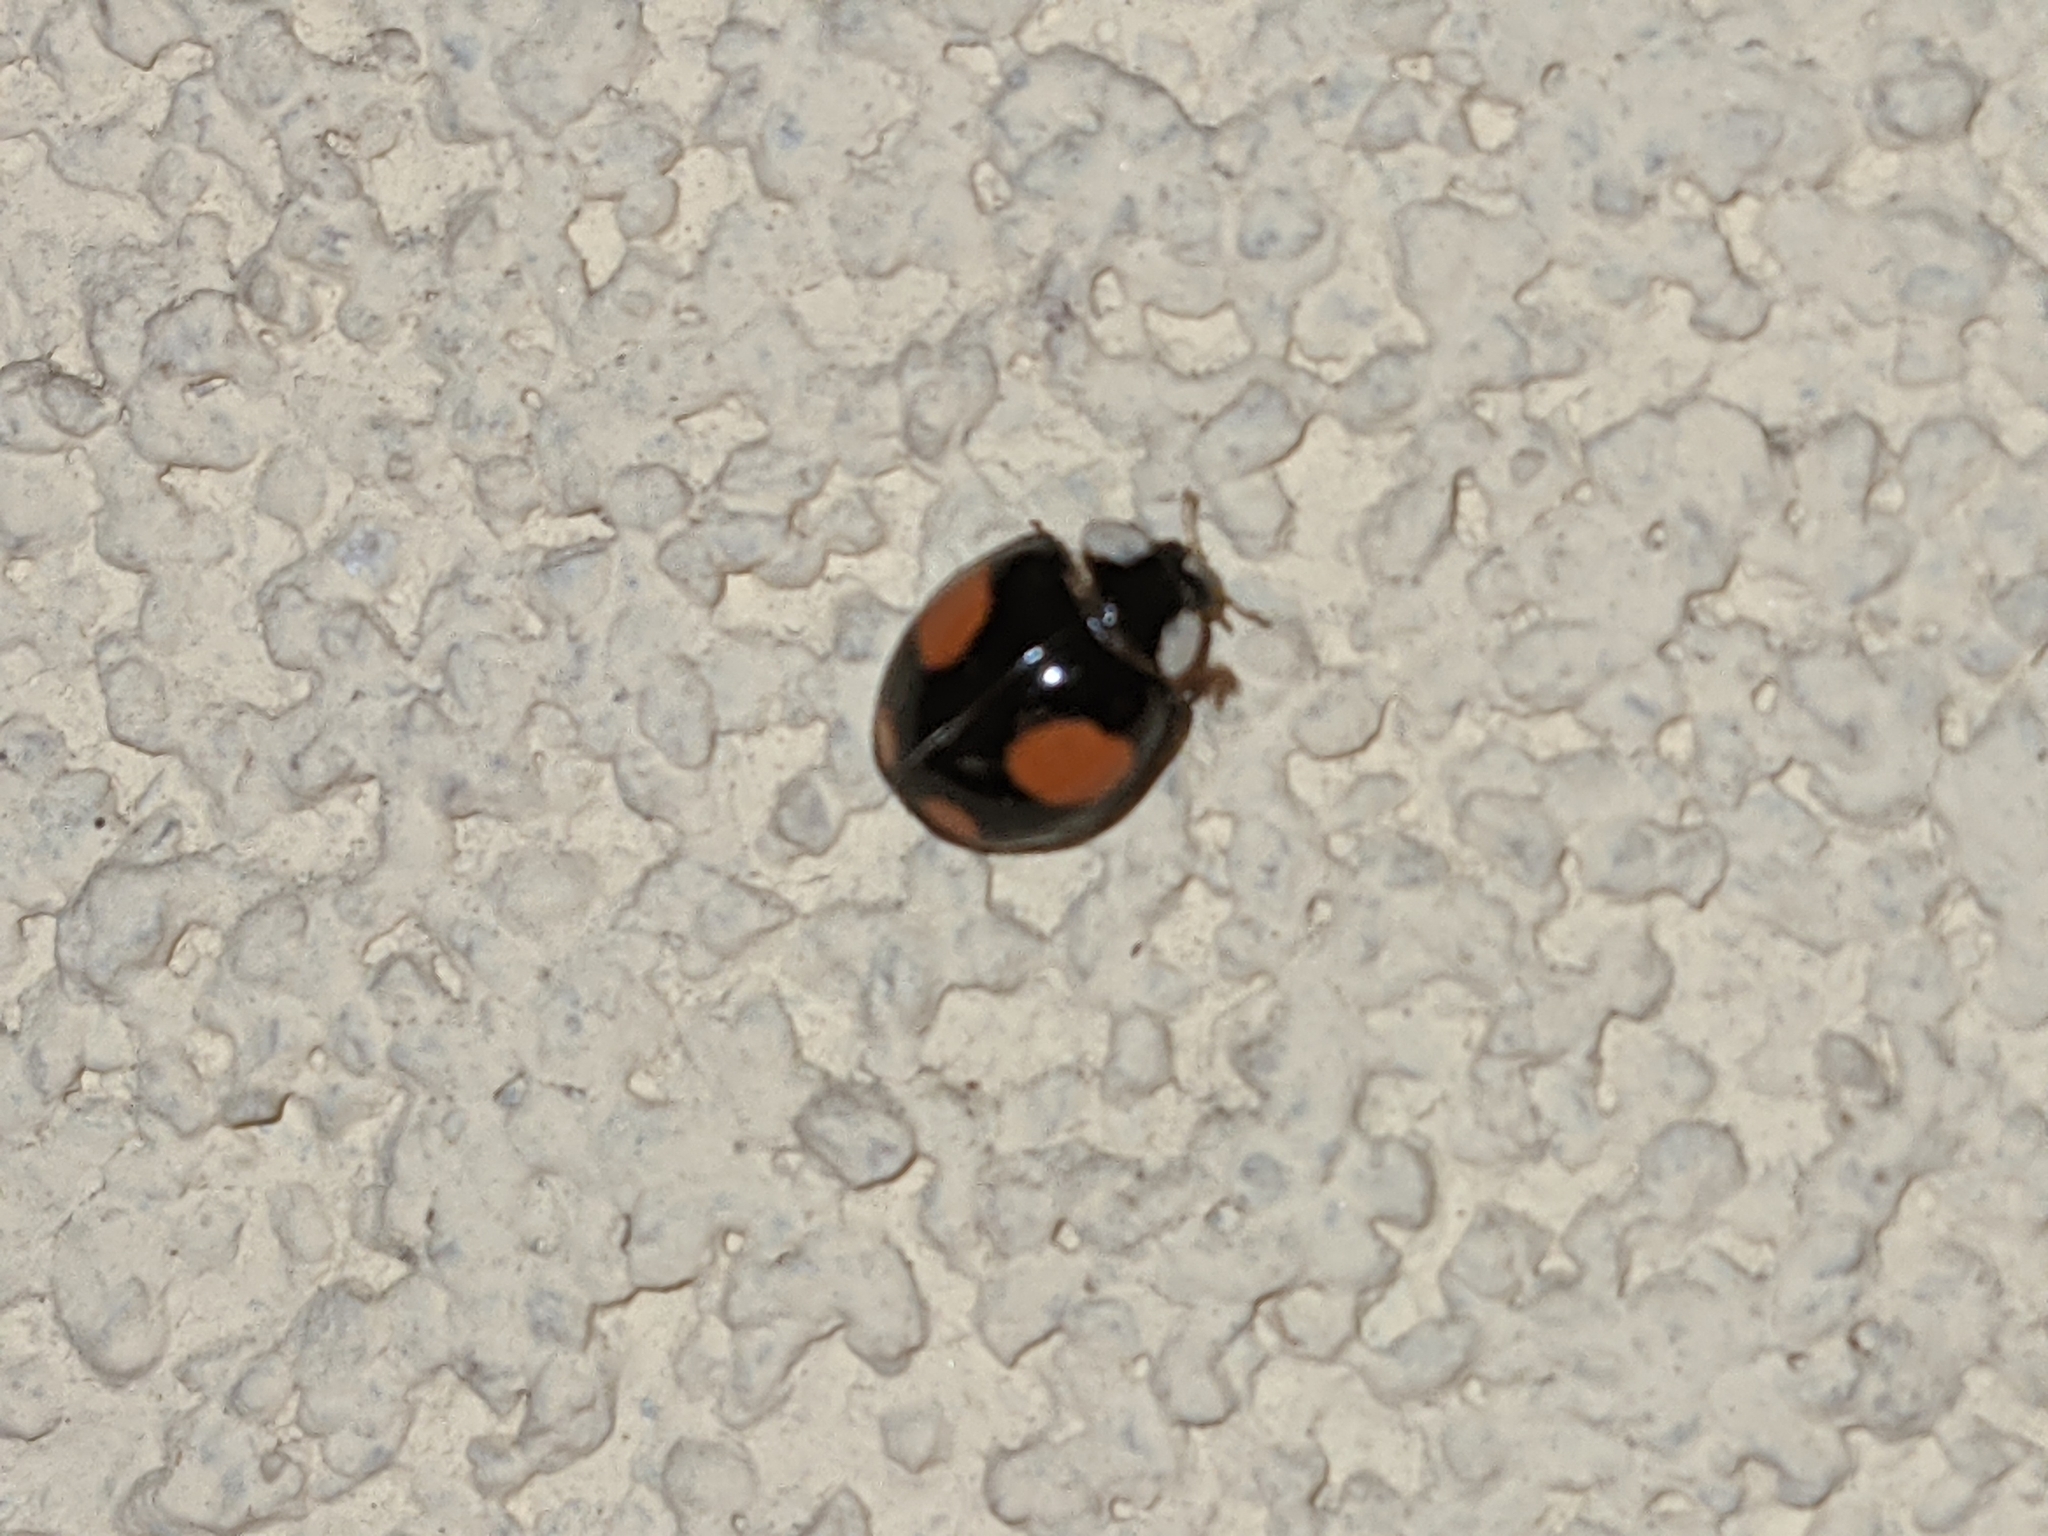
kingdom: Animalia
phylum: Arthropoda
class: Insecta
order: Coleoptera
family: Coccinellidae
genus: Harmonia
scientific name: Harmonia axyridis
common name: Harlequin ladybird
